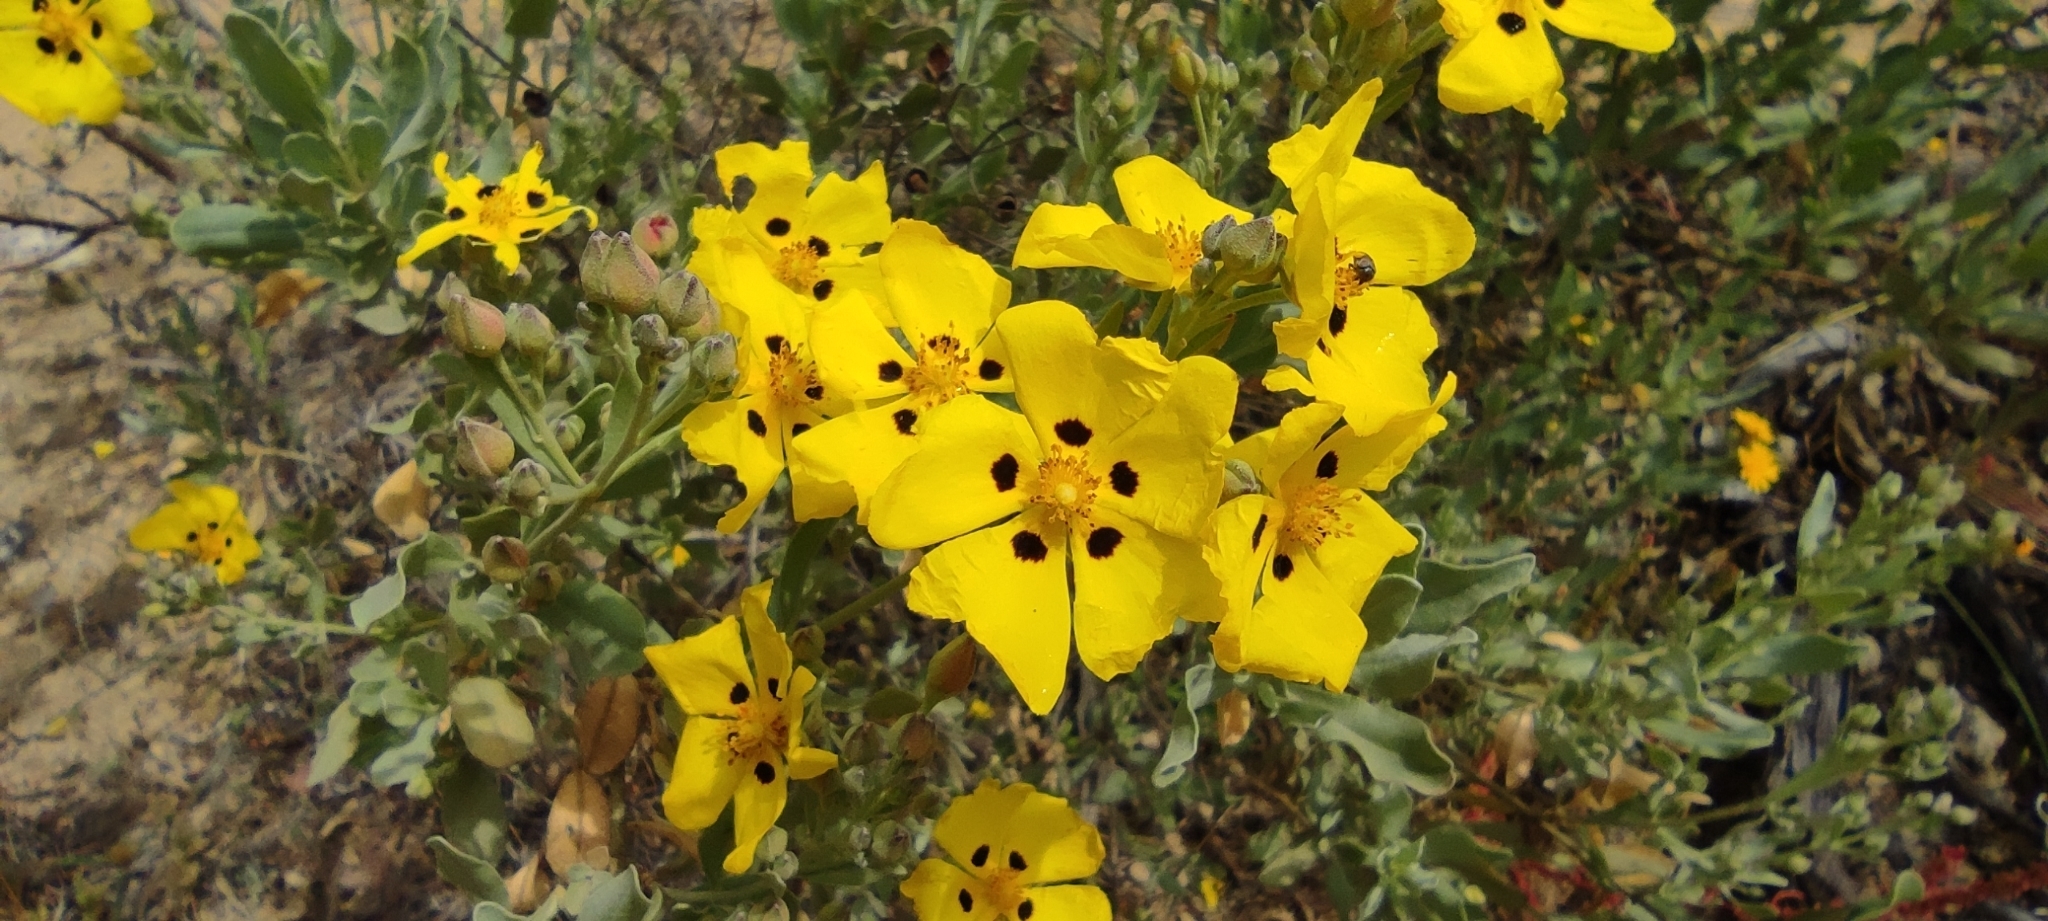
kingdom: Plantae
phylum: Tracheophyta
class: Magnoliopsida
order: Malvales
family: Cistaceae
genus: Halimium
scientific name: Halimium halimifolium
